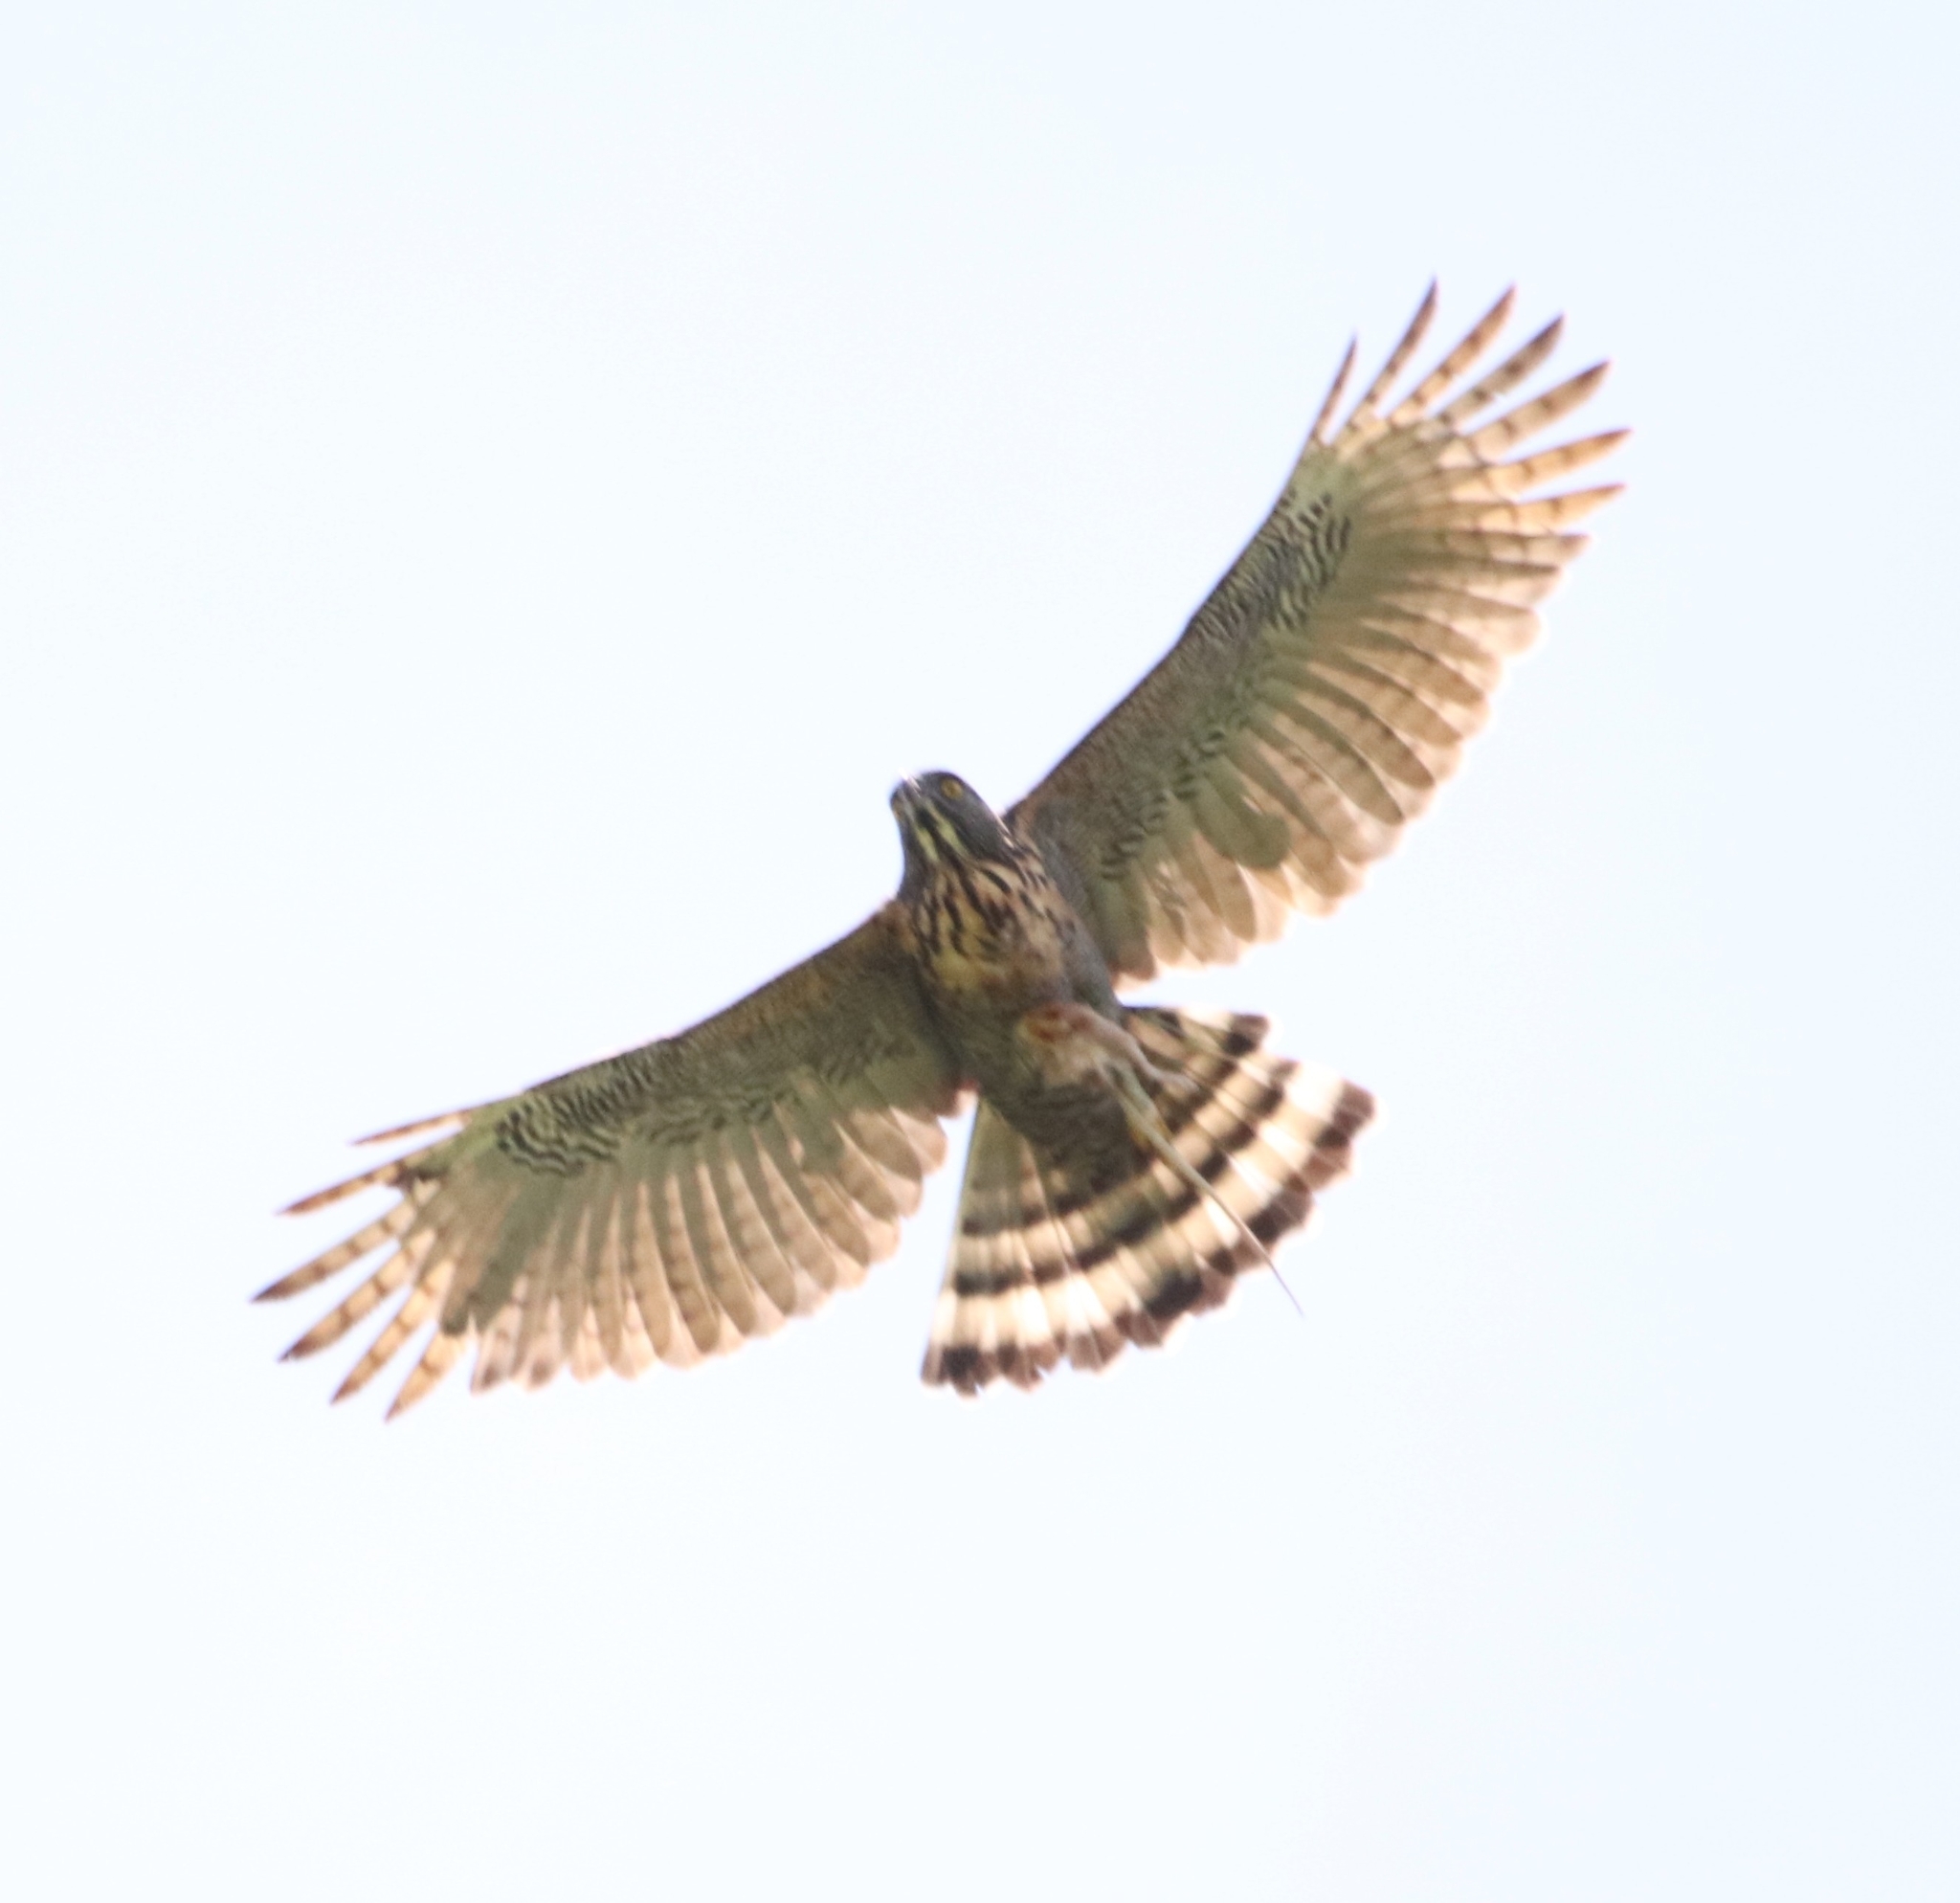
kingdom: Animalia
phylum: Chordata
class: Aves
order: Accipitriformes
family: Accipitridae
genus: Nisaetus
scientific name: Nisaetus lanceolatus
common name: Sulawesi hawk-eagle
